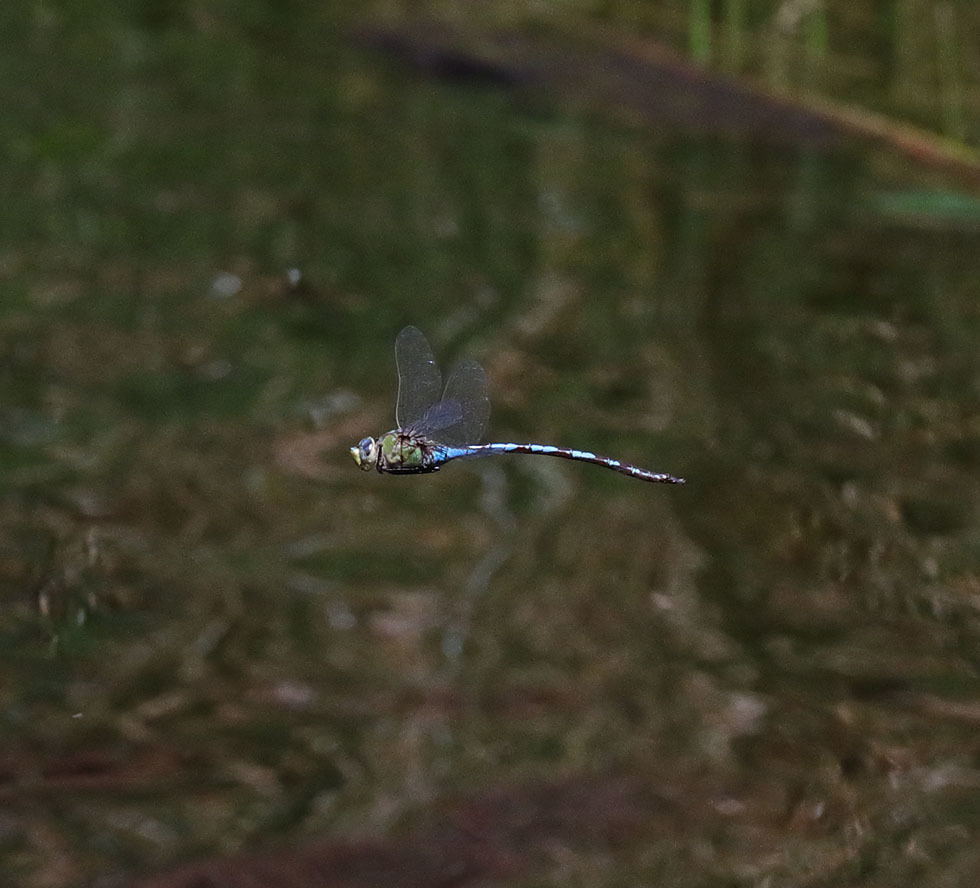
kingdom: Animalia
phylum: Arthropoda
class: Insecta
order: Odonata
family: Aeshnidae
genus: Anax
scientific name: Anax walsinghami
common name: Giant darner
